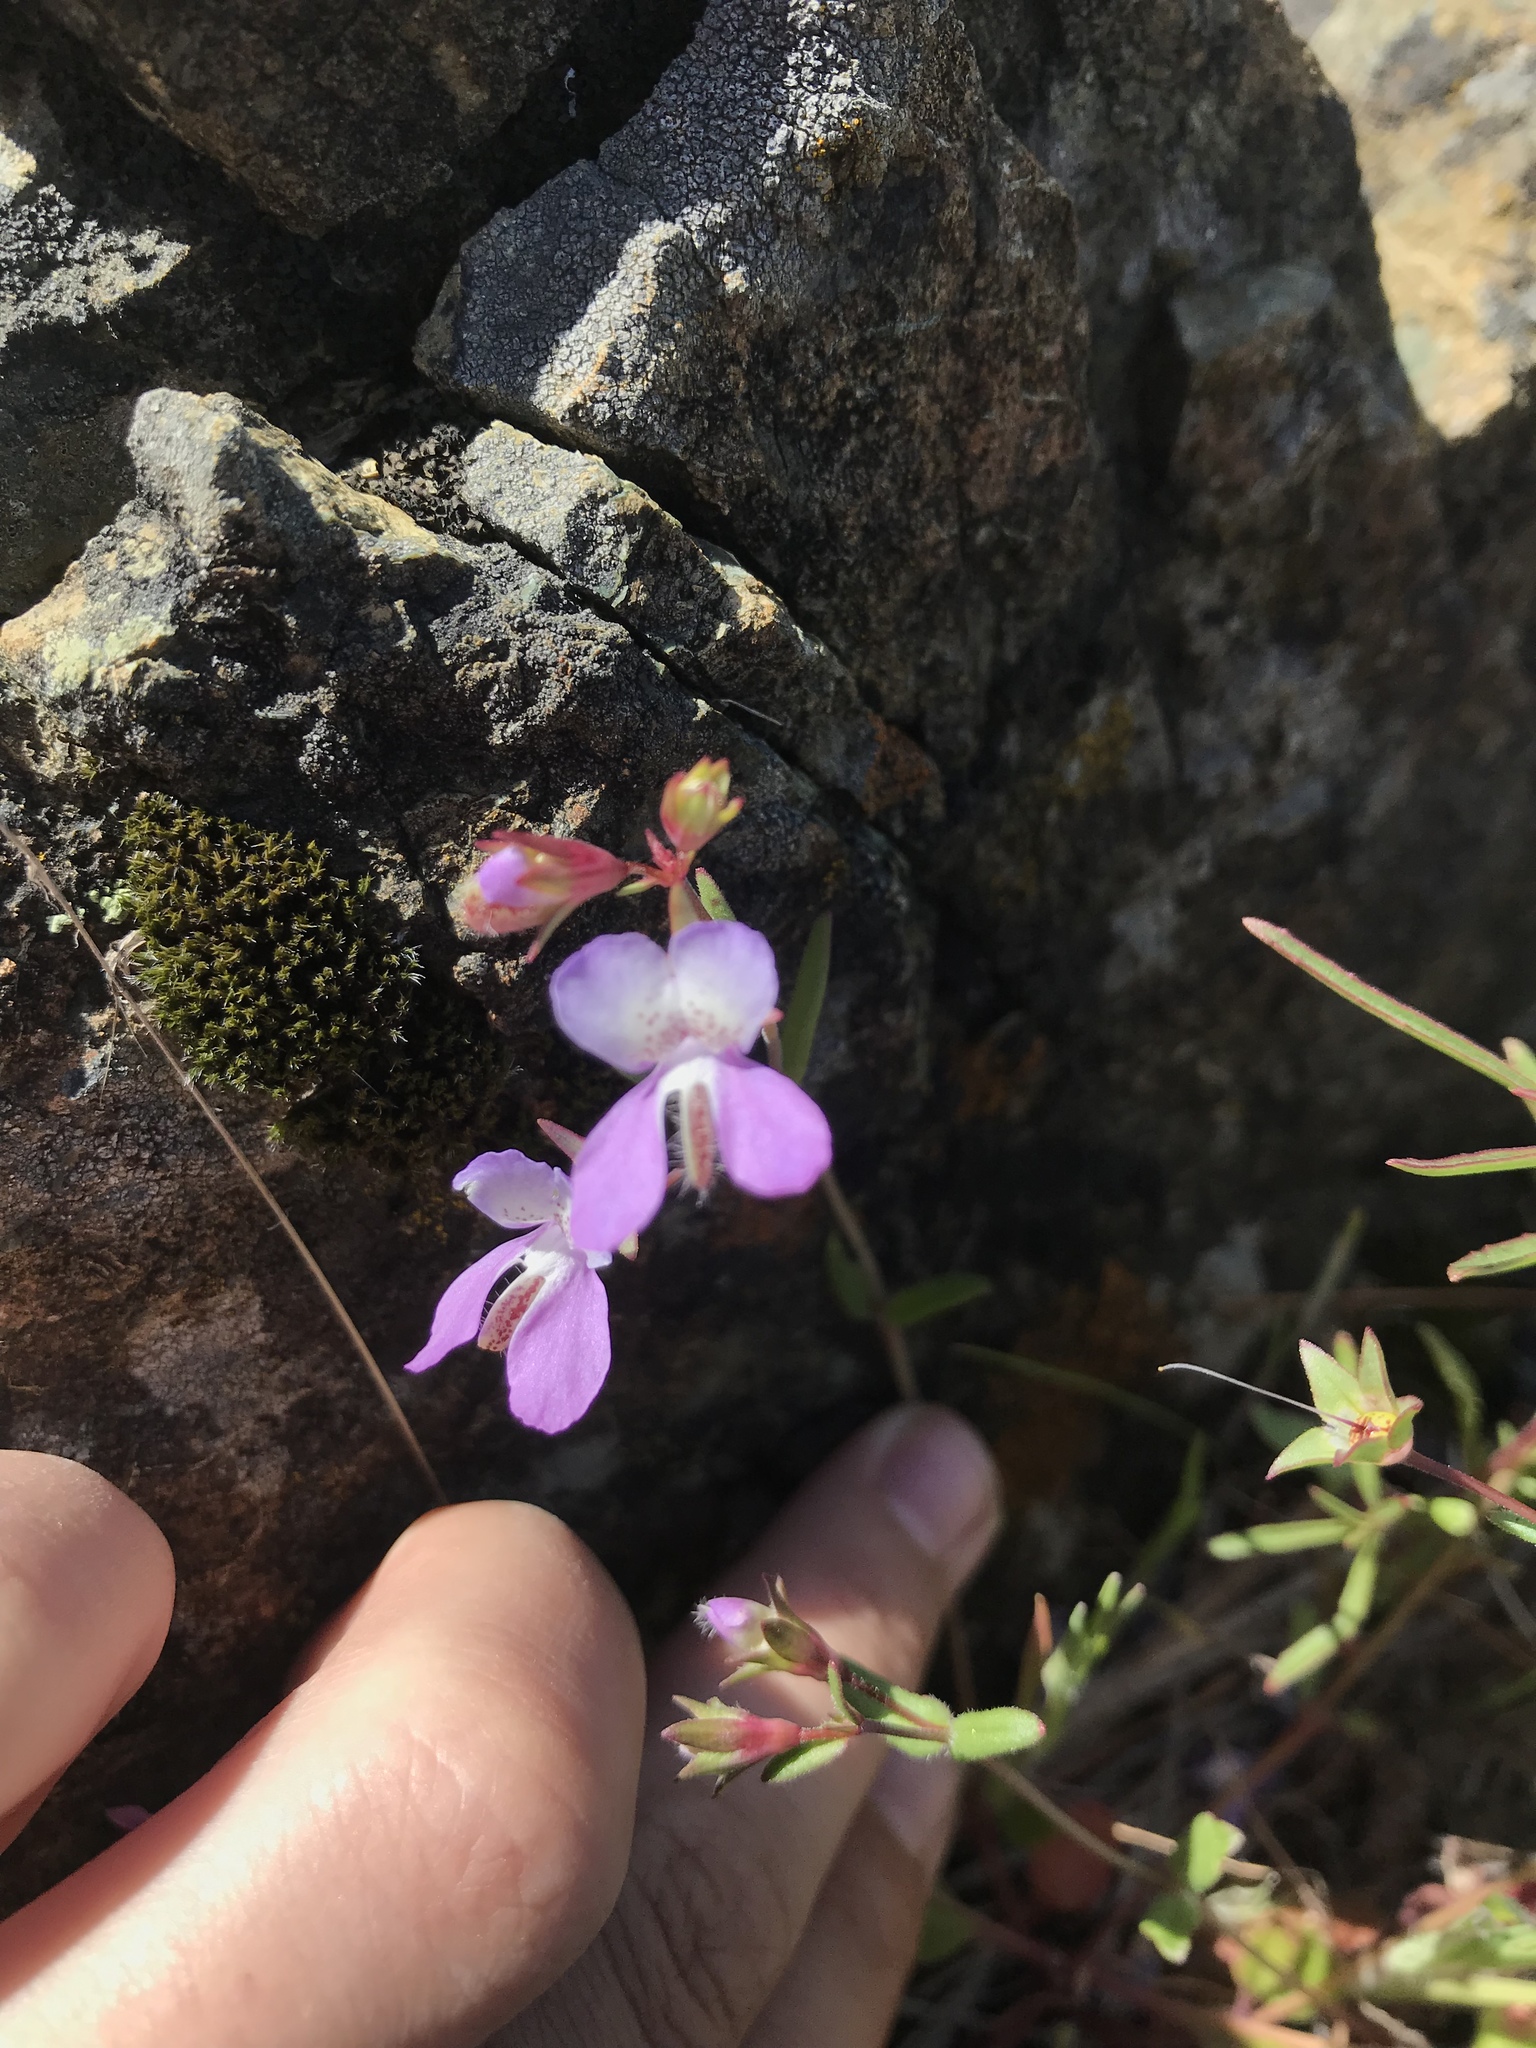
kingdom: Plantae
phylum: Tracheophyta
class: Magnoliopsida
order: Lamiales
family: Plantaginaceae
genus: Collinsia
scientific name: Collinsia sparsiflora
